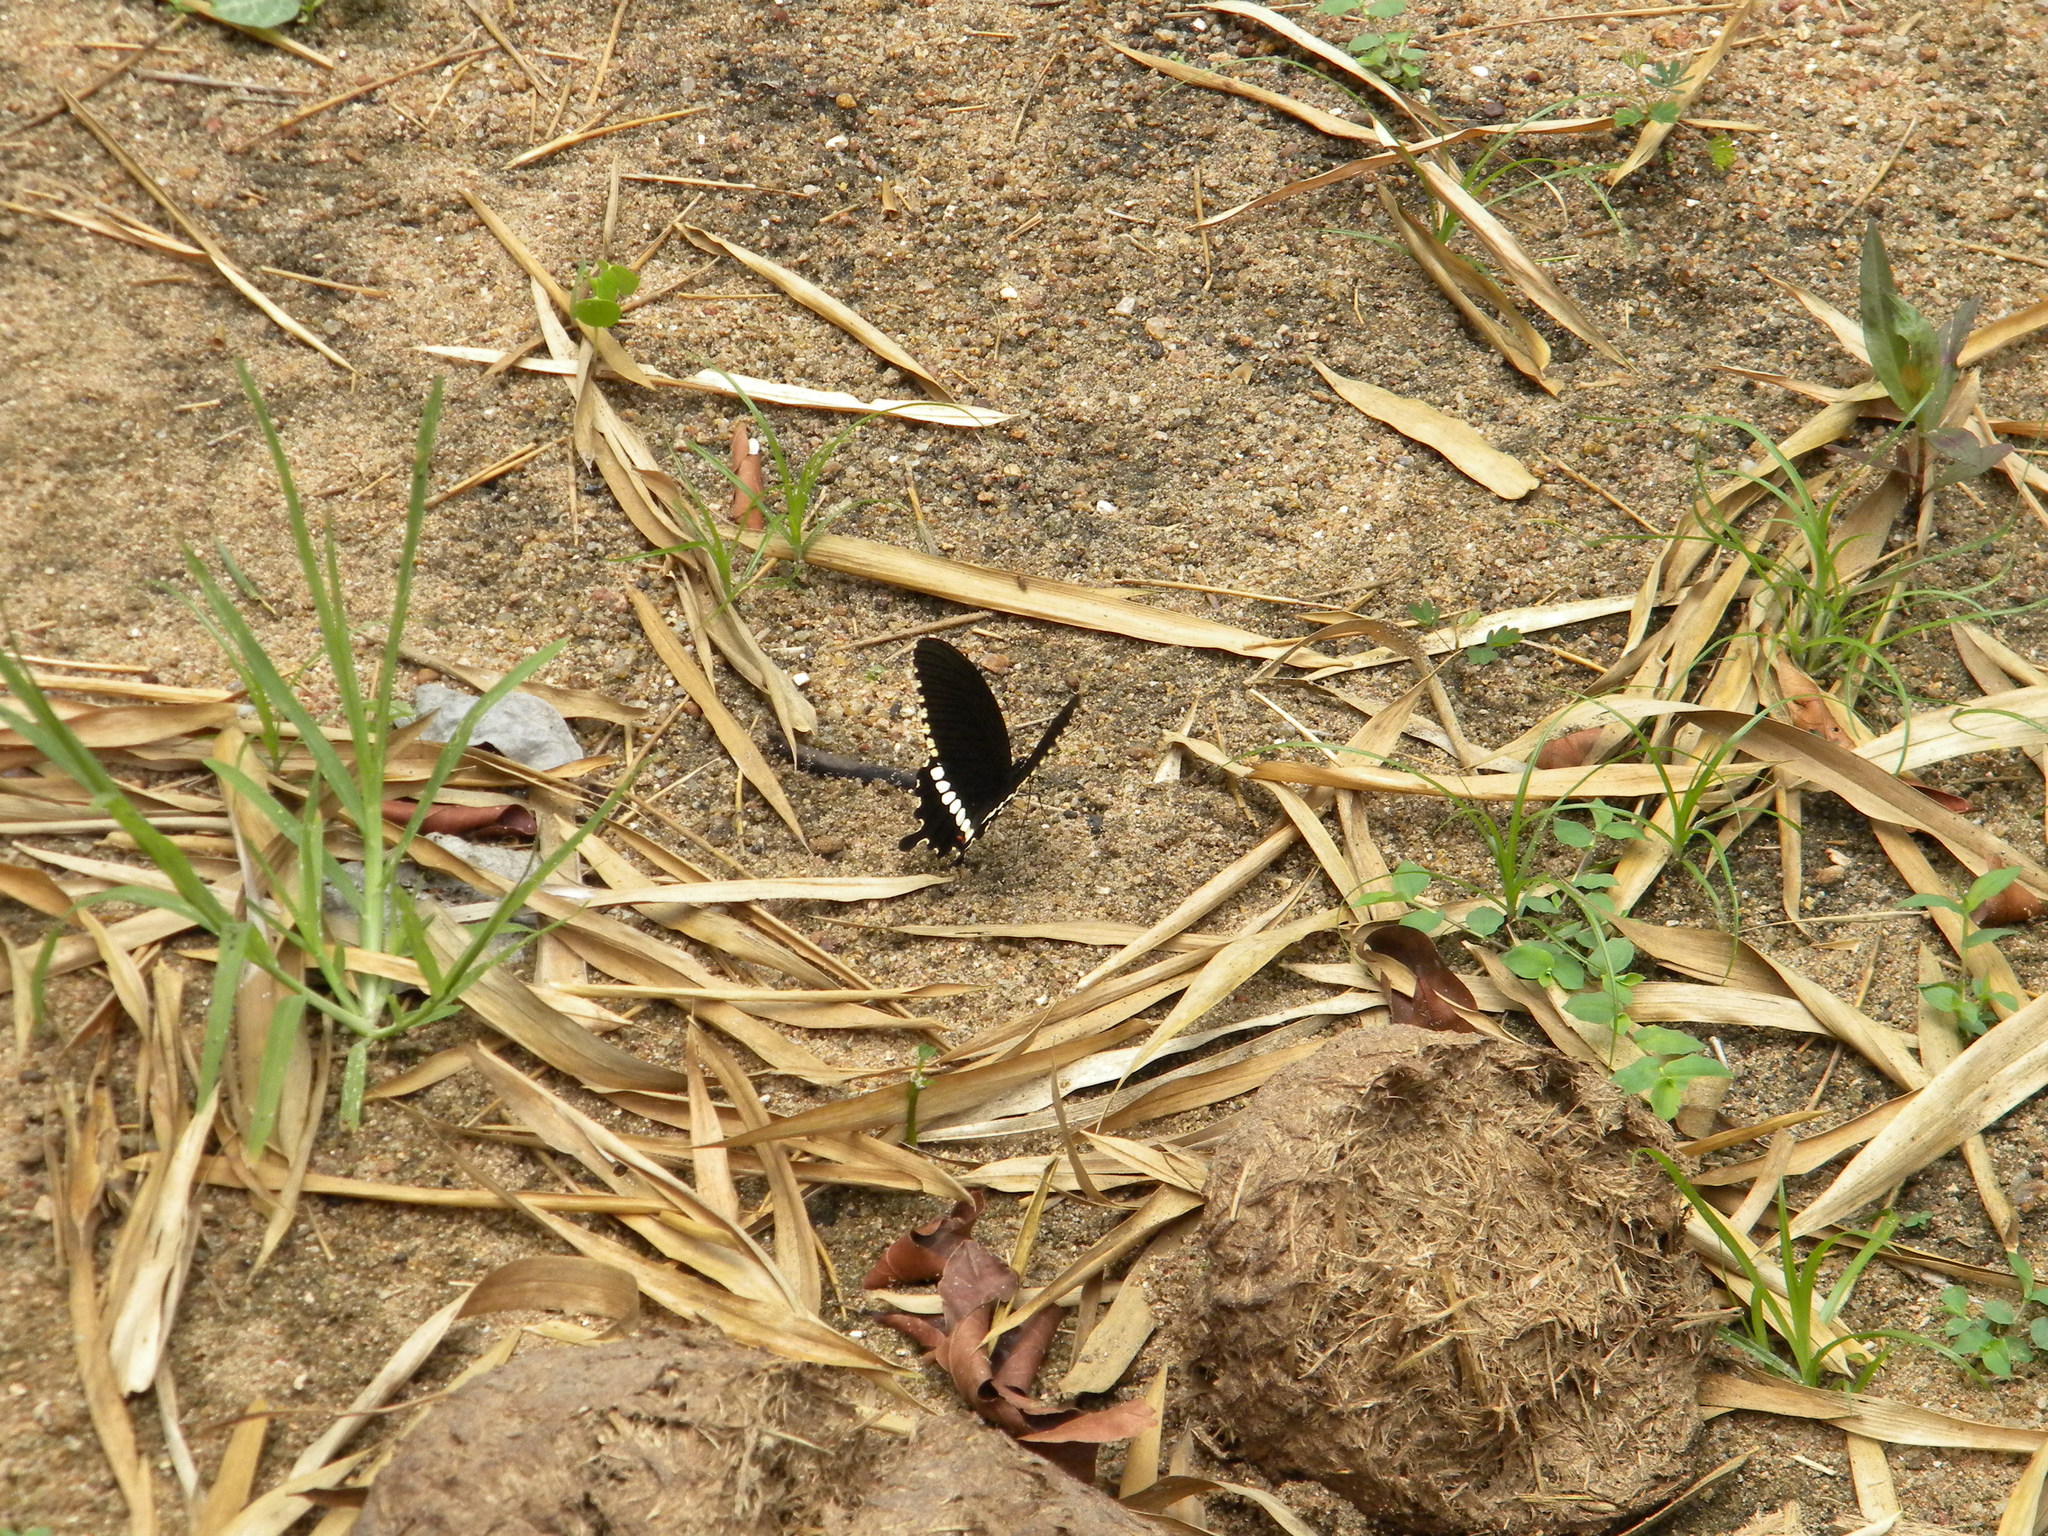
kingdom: Animalia
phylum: Arthropoda
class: Insecta
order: Lepidoptera
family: Papilionidae
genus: Papilio
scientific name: Papilio polytes
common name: Common mormon
